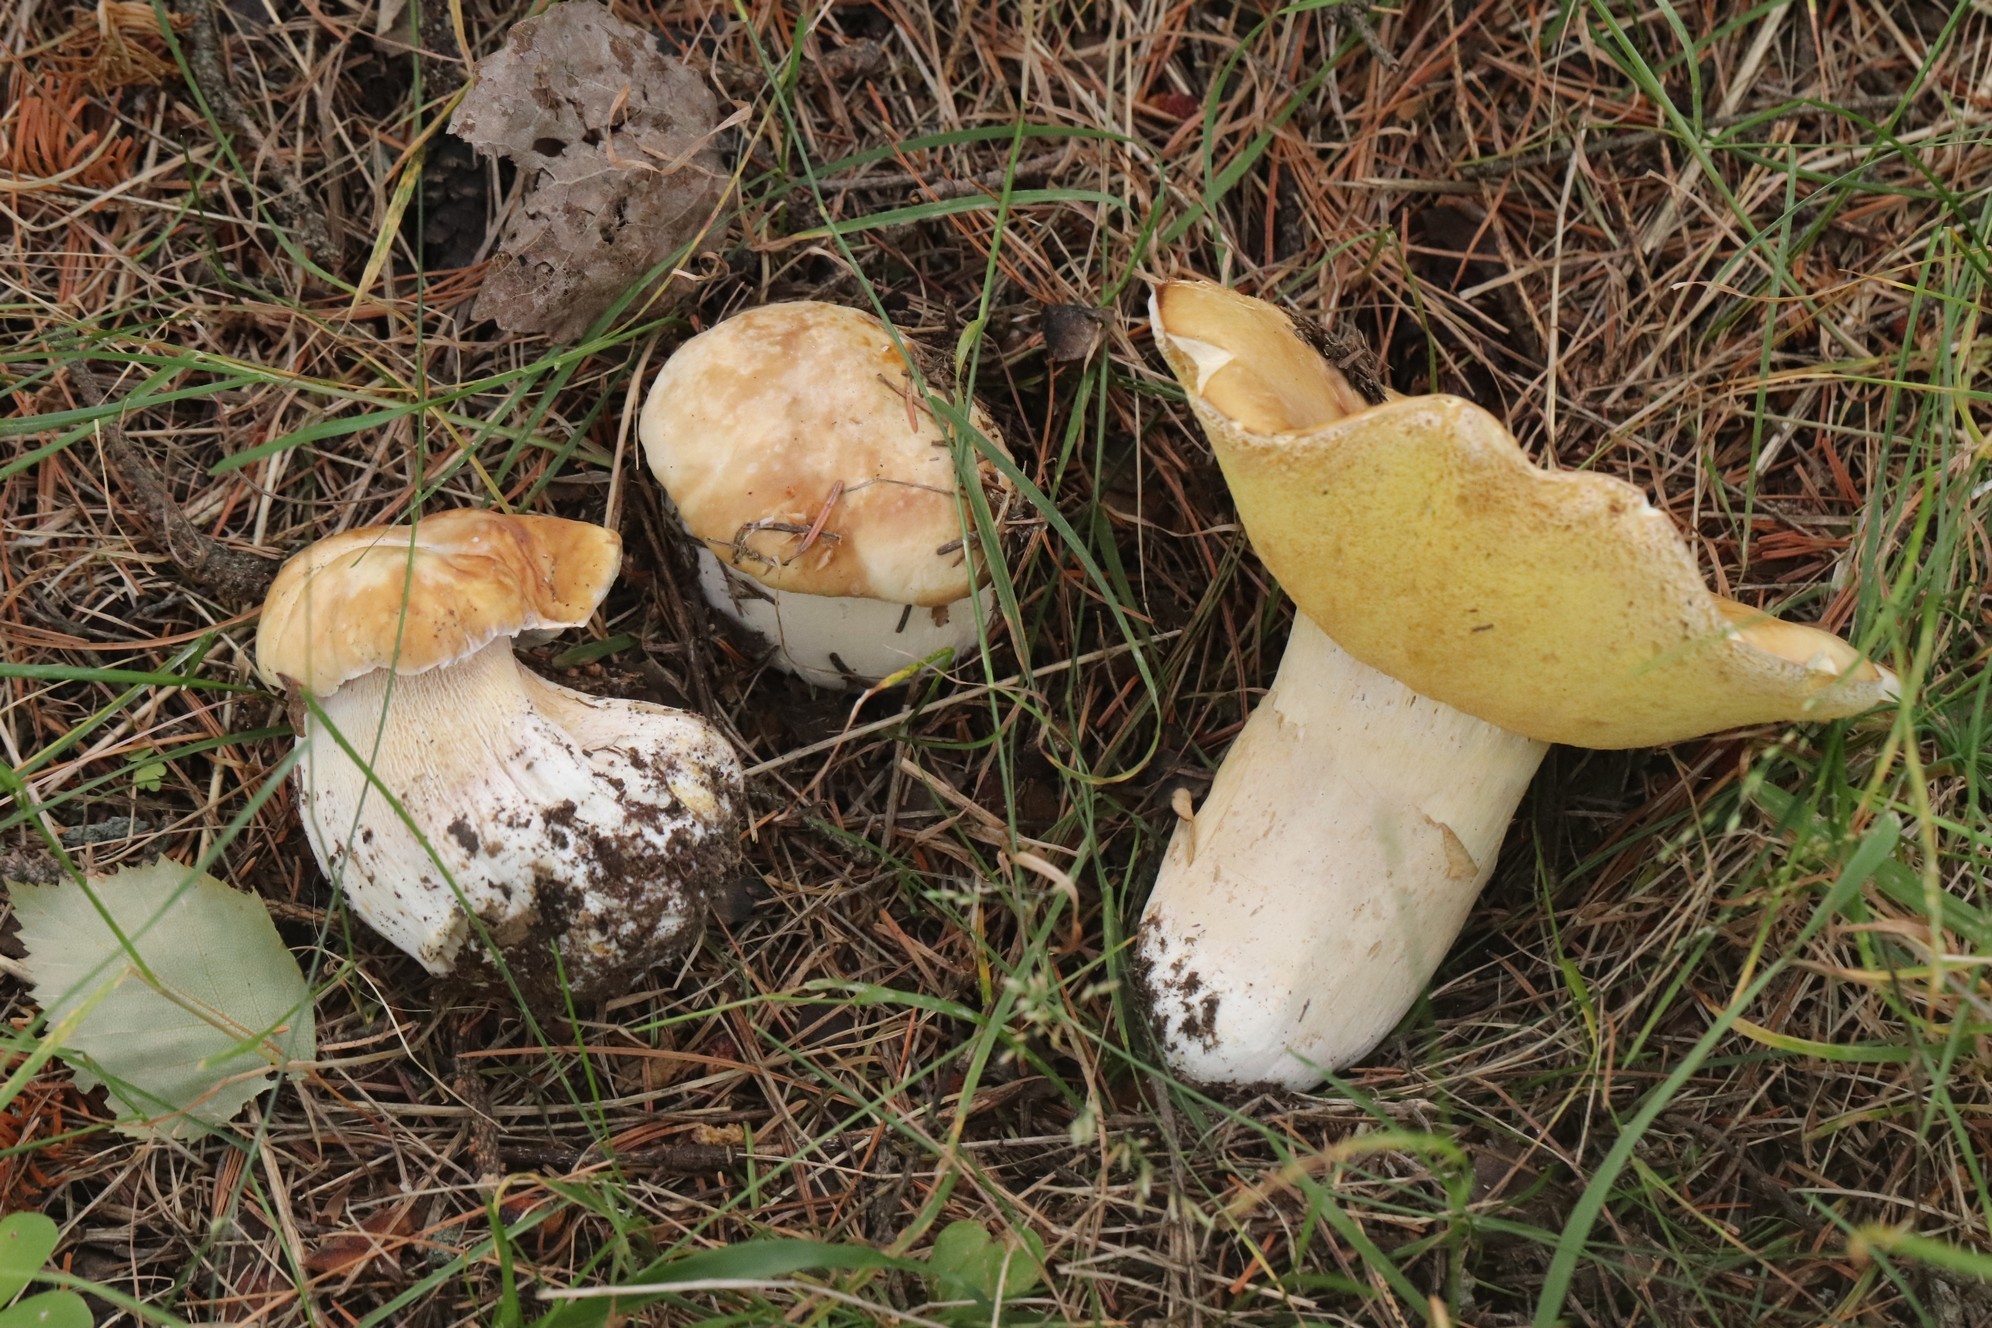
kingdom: Fungi
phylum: Basidiomycota
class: Agaricomycetes
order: Boletales
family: Boletaceae
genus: Boletus
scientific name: Boletus edulis
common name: Cep
